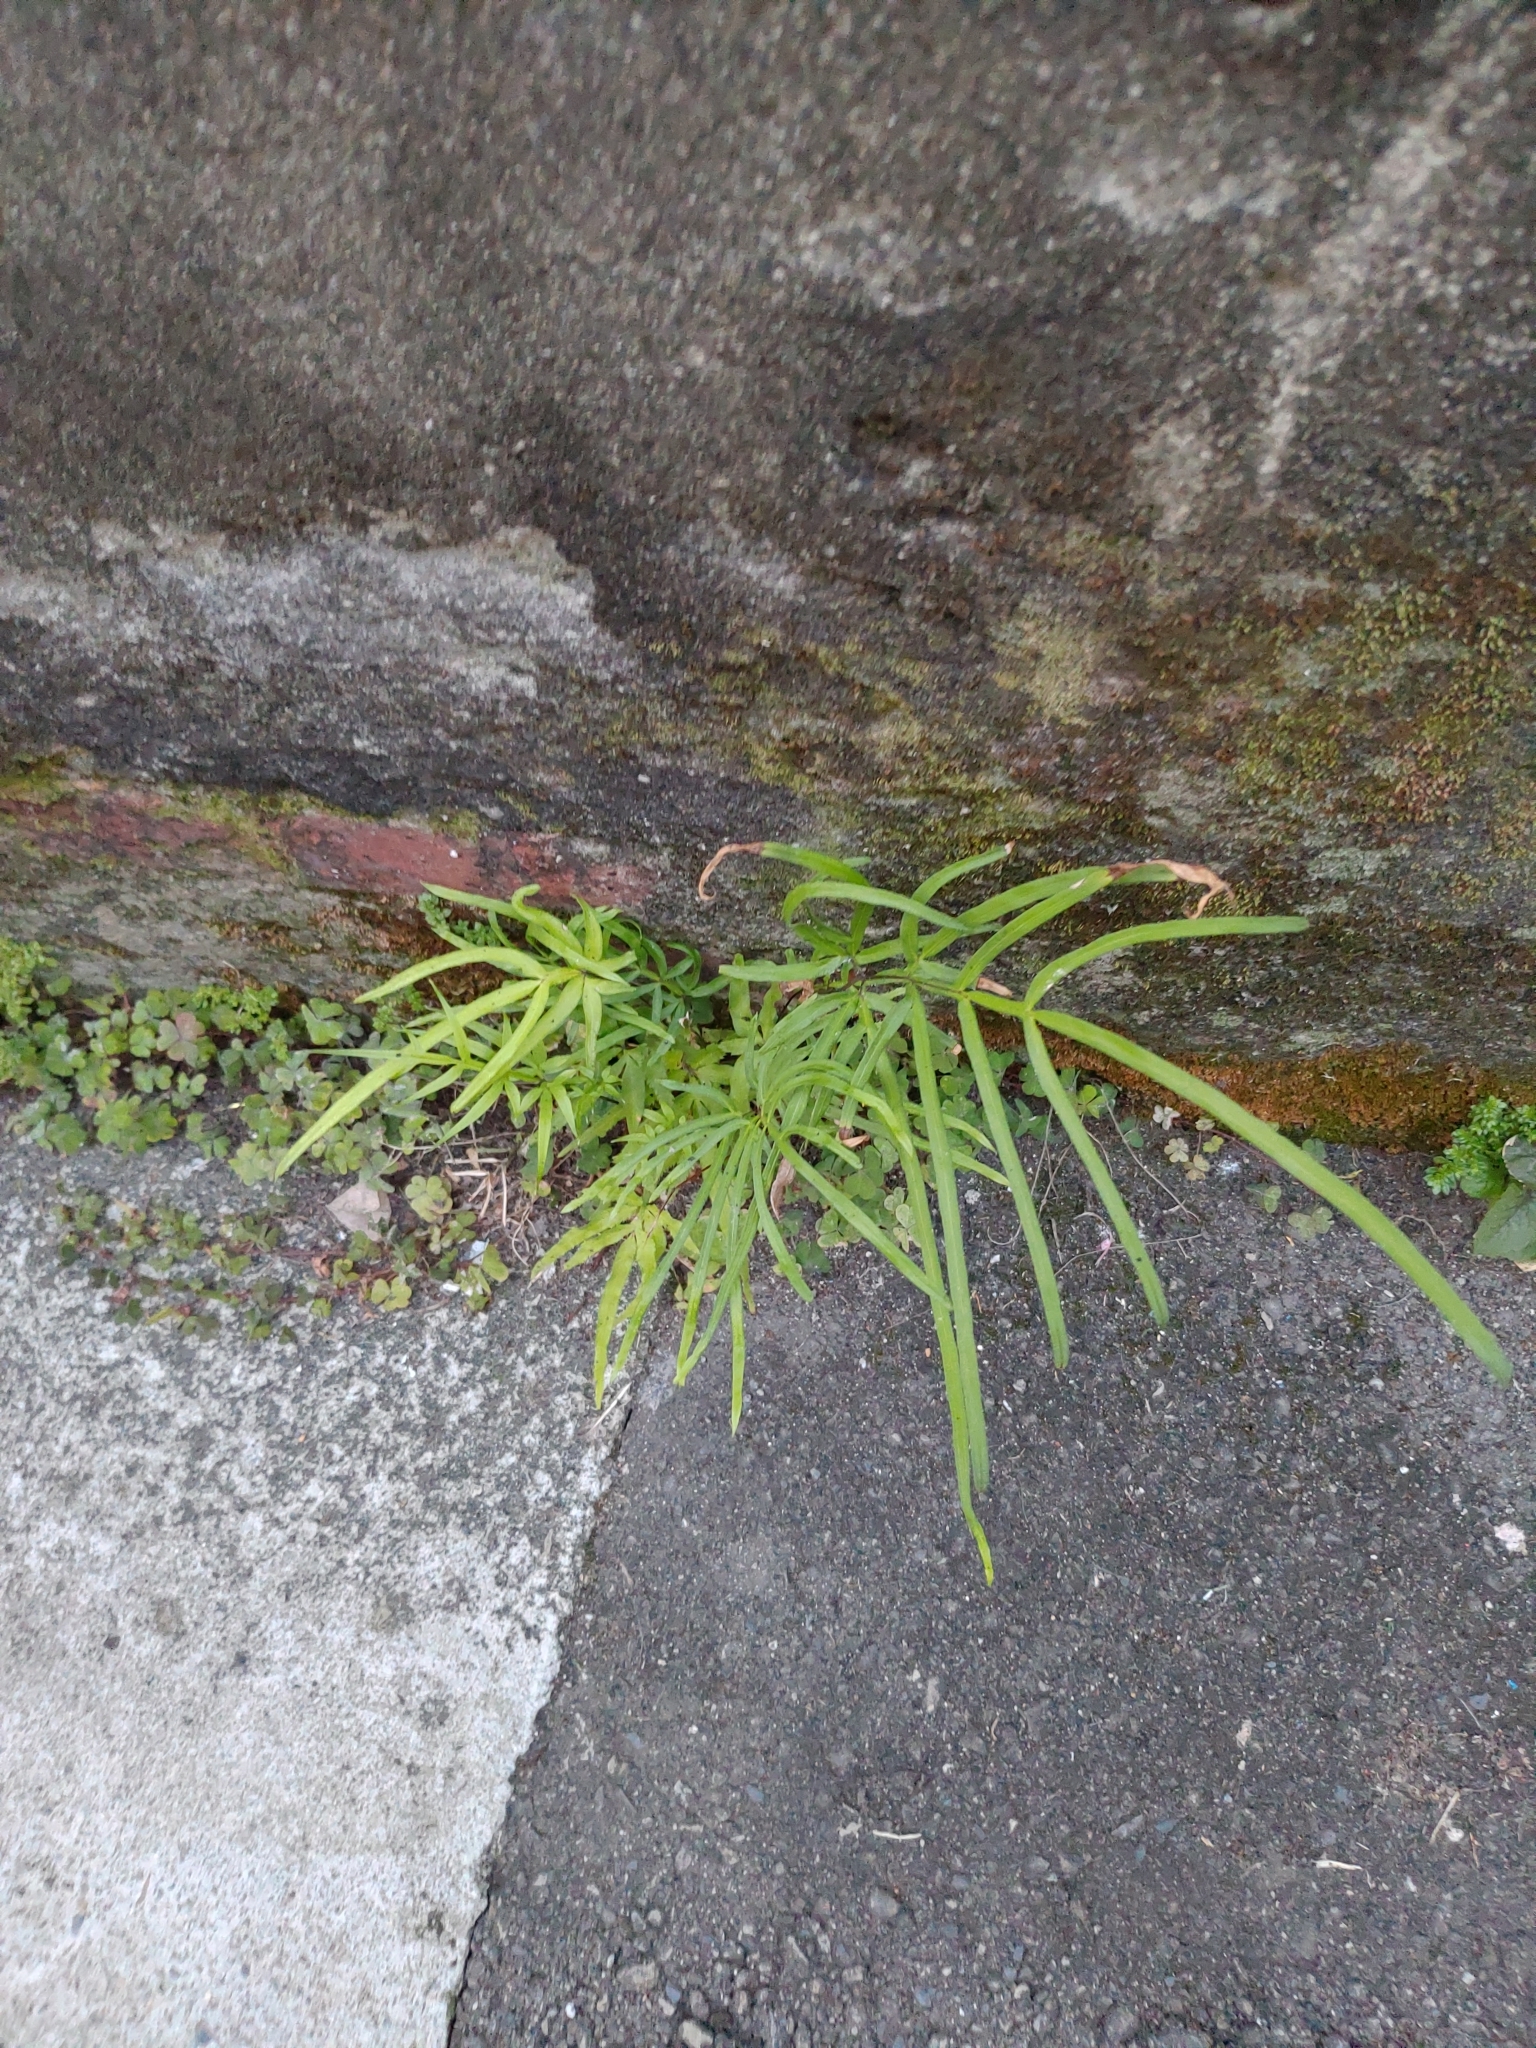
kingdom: Plantae
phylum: Tracheophyta
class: Polypodiopsida
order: Polypodiales
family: Pteridaceae
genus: Pteris
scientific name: Pteris multifida
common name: Spider brake
